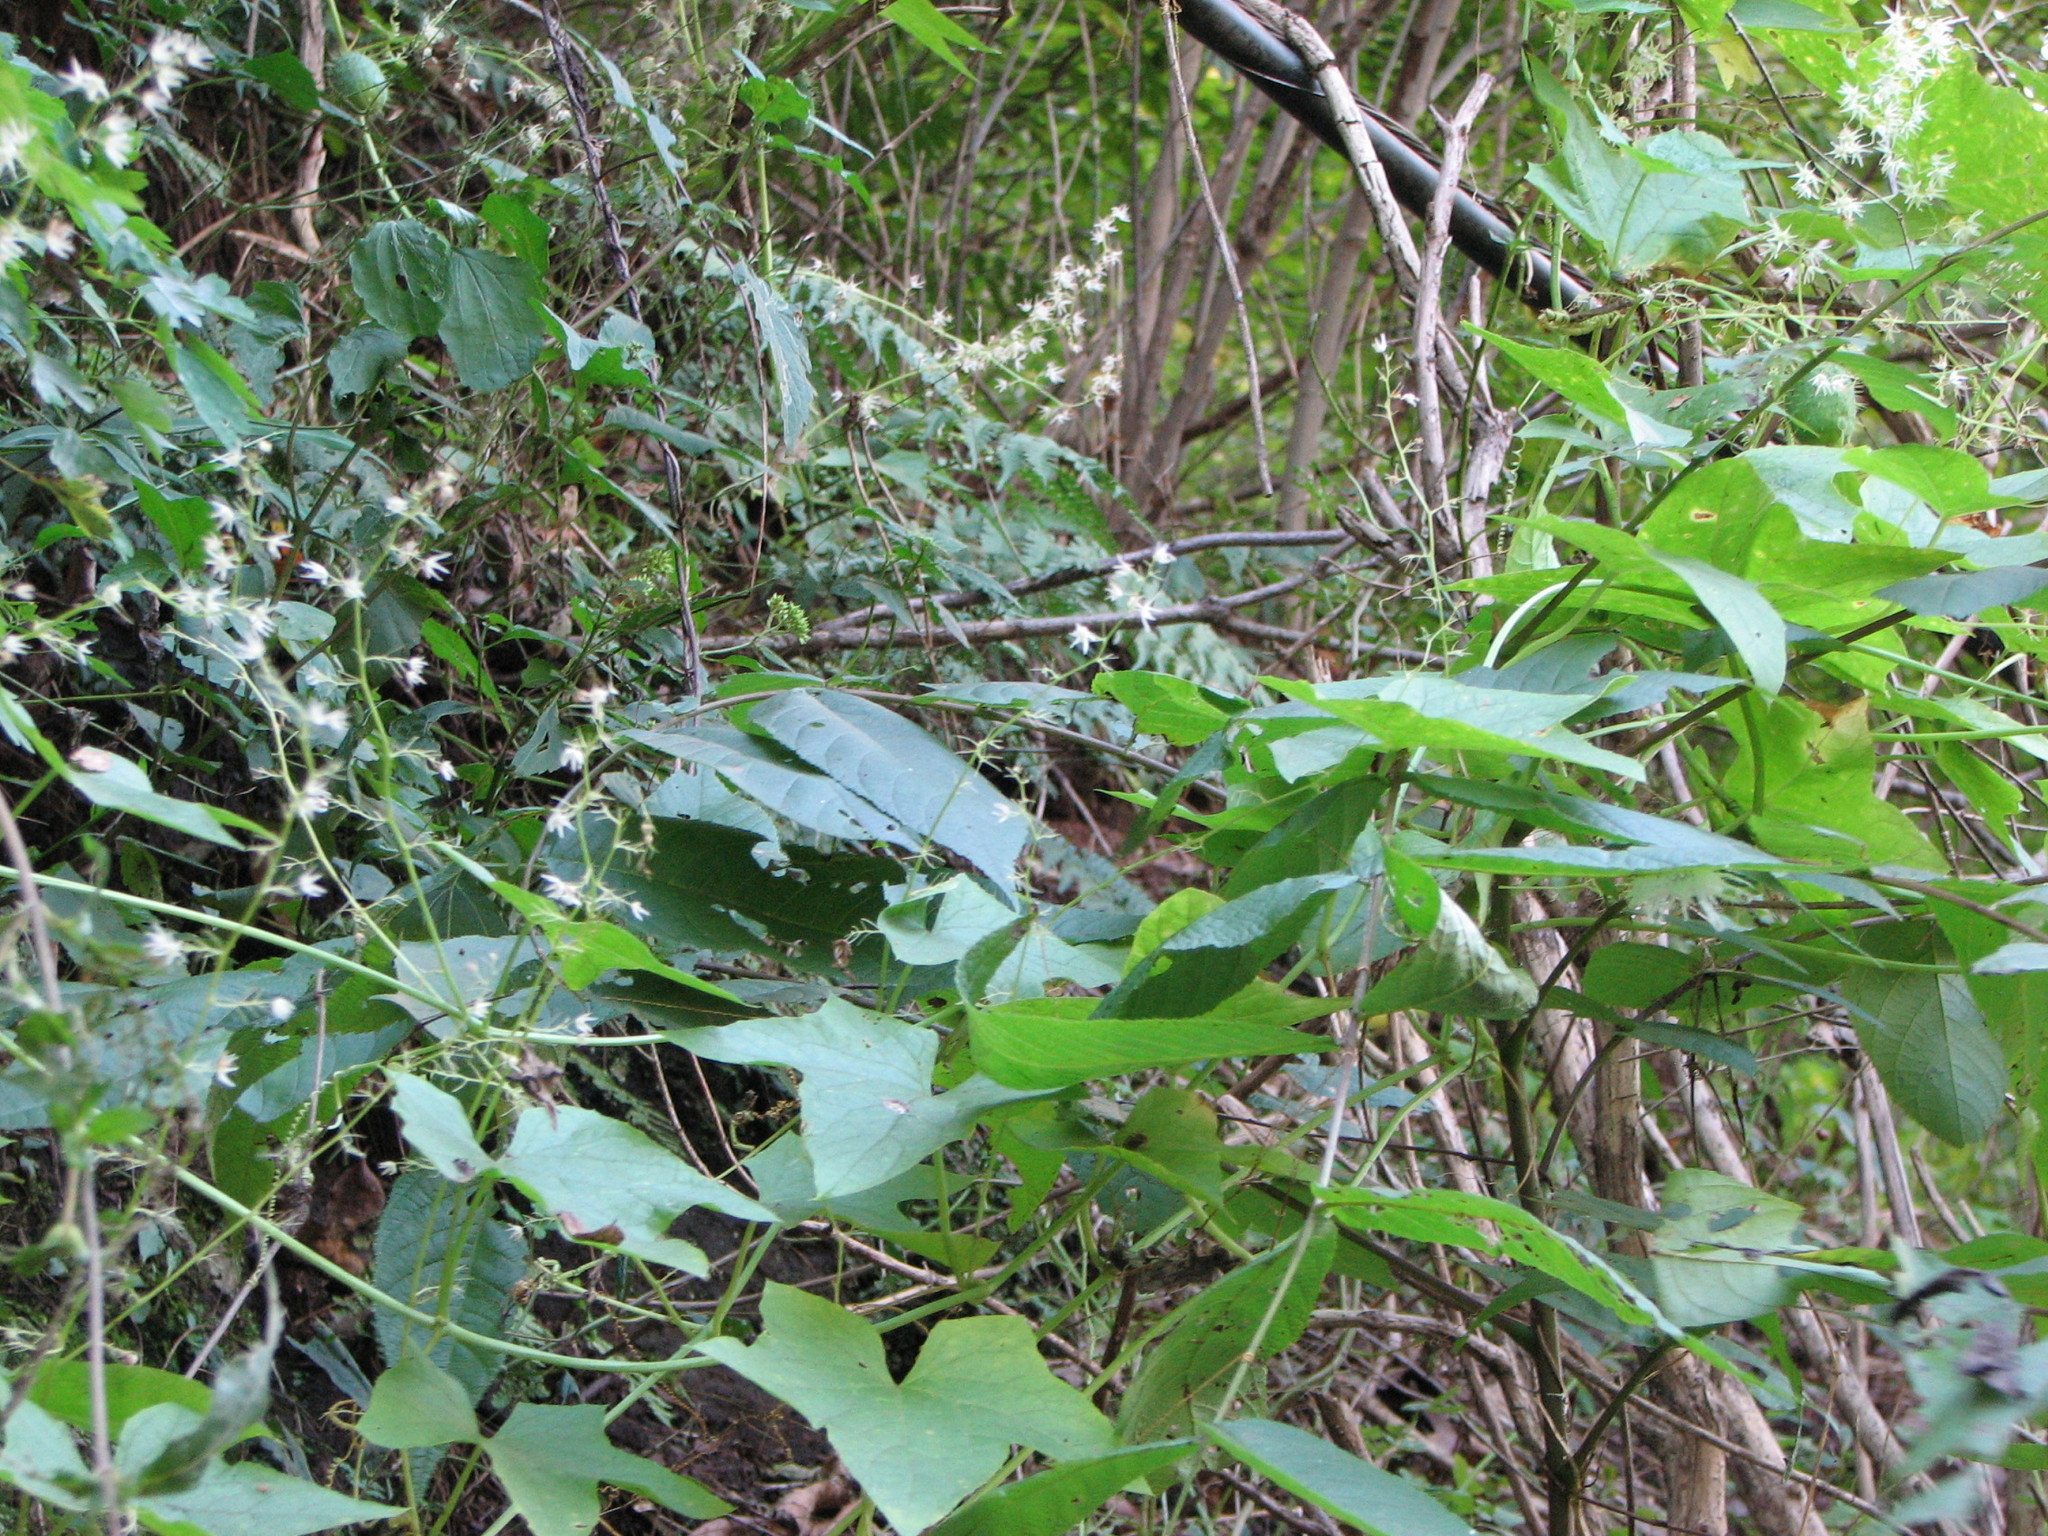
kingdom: Plantae
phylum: Tracheophyta
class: Magnoliopsida
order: Cucurbitales
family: Cucurbitaceae
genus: Echinocystis
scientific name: Echinocystis lobata
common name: Wild cucumber
